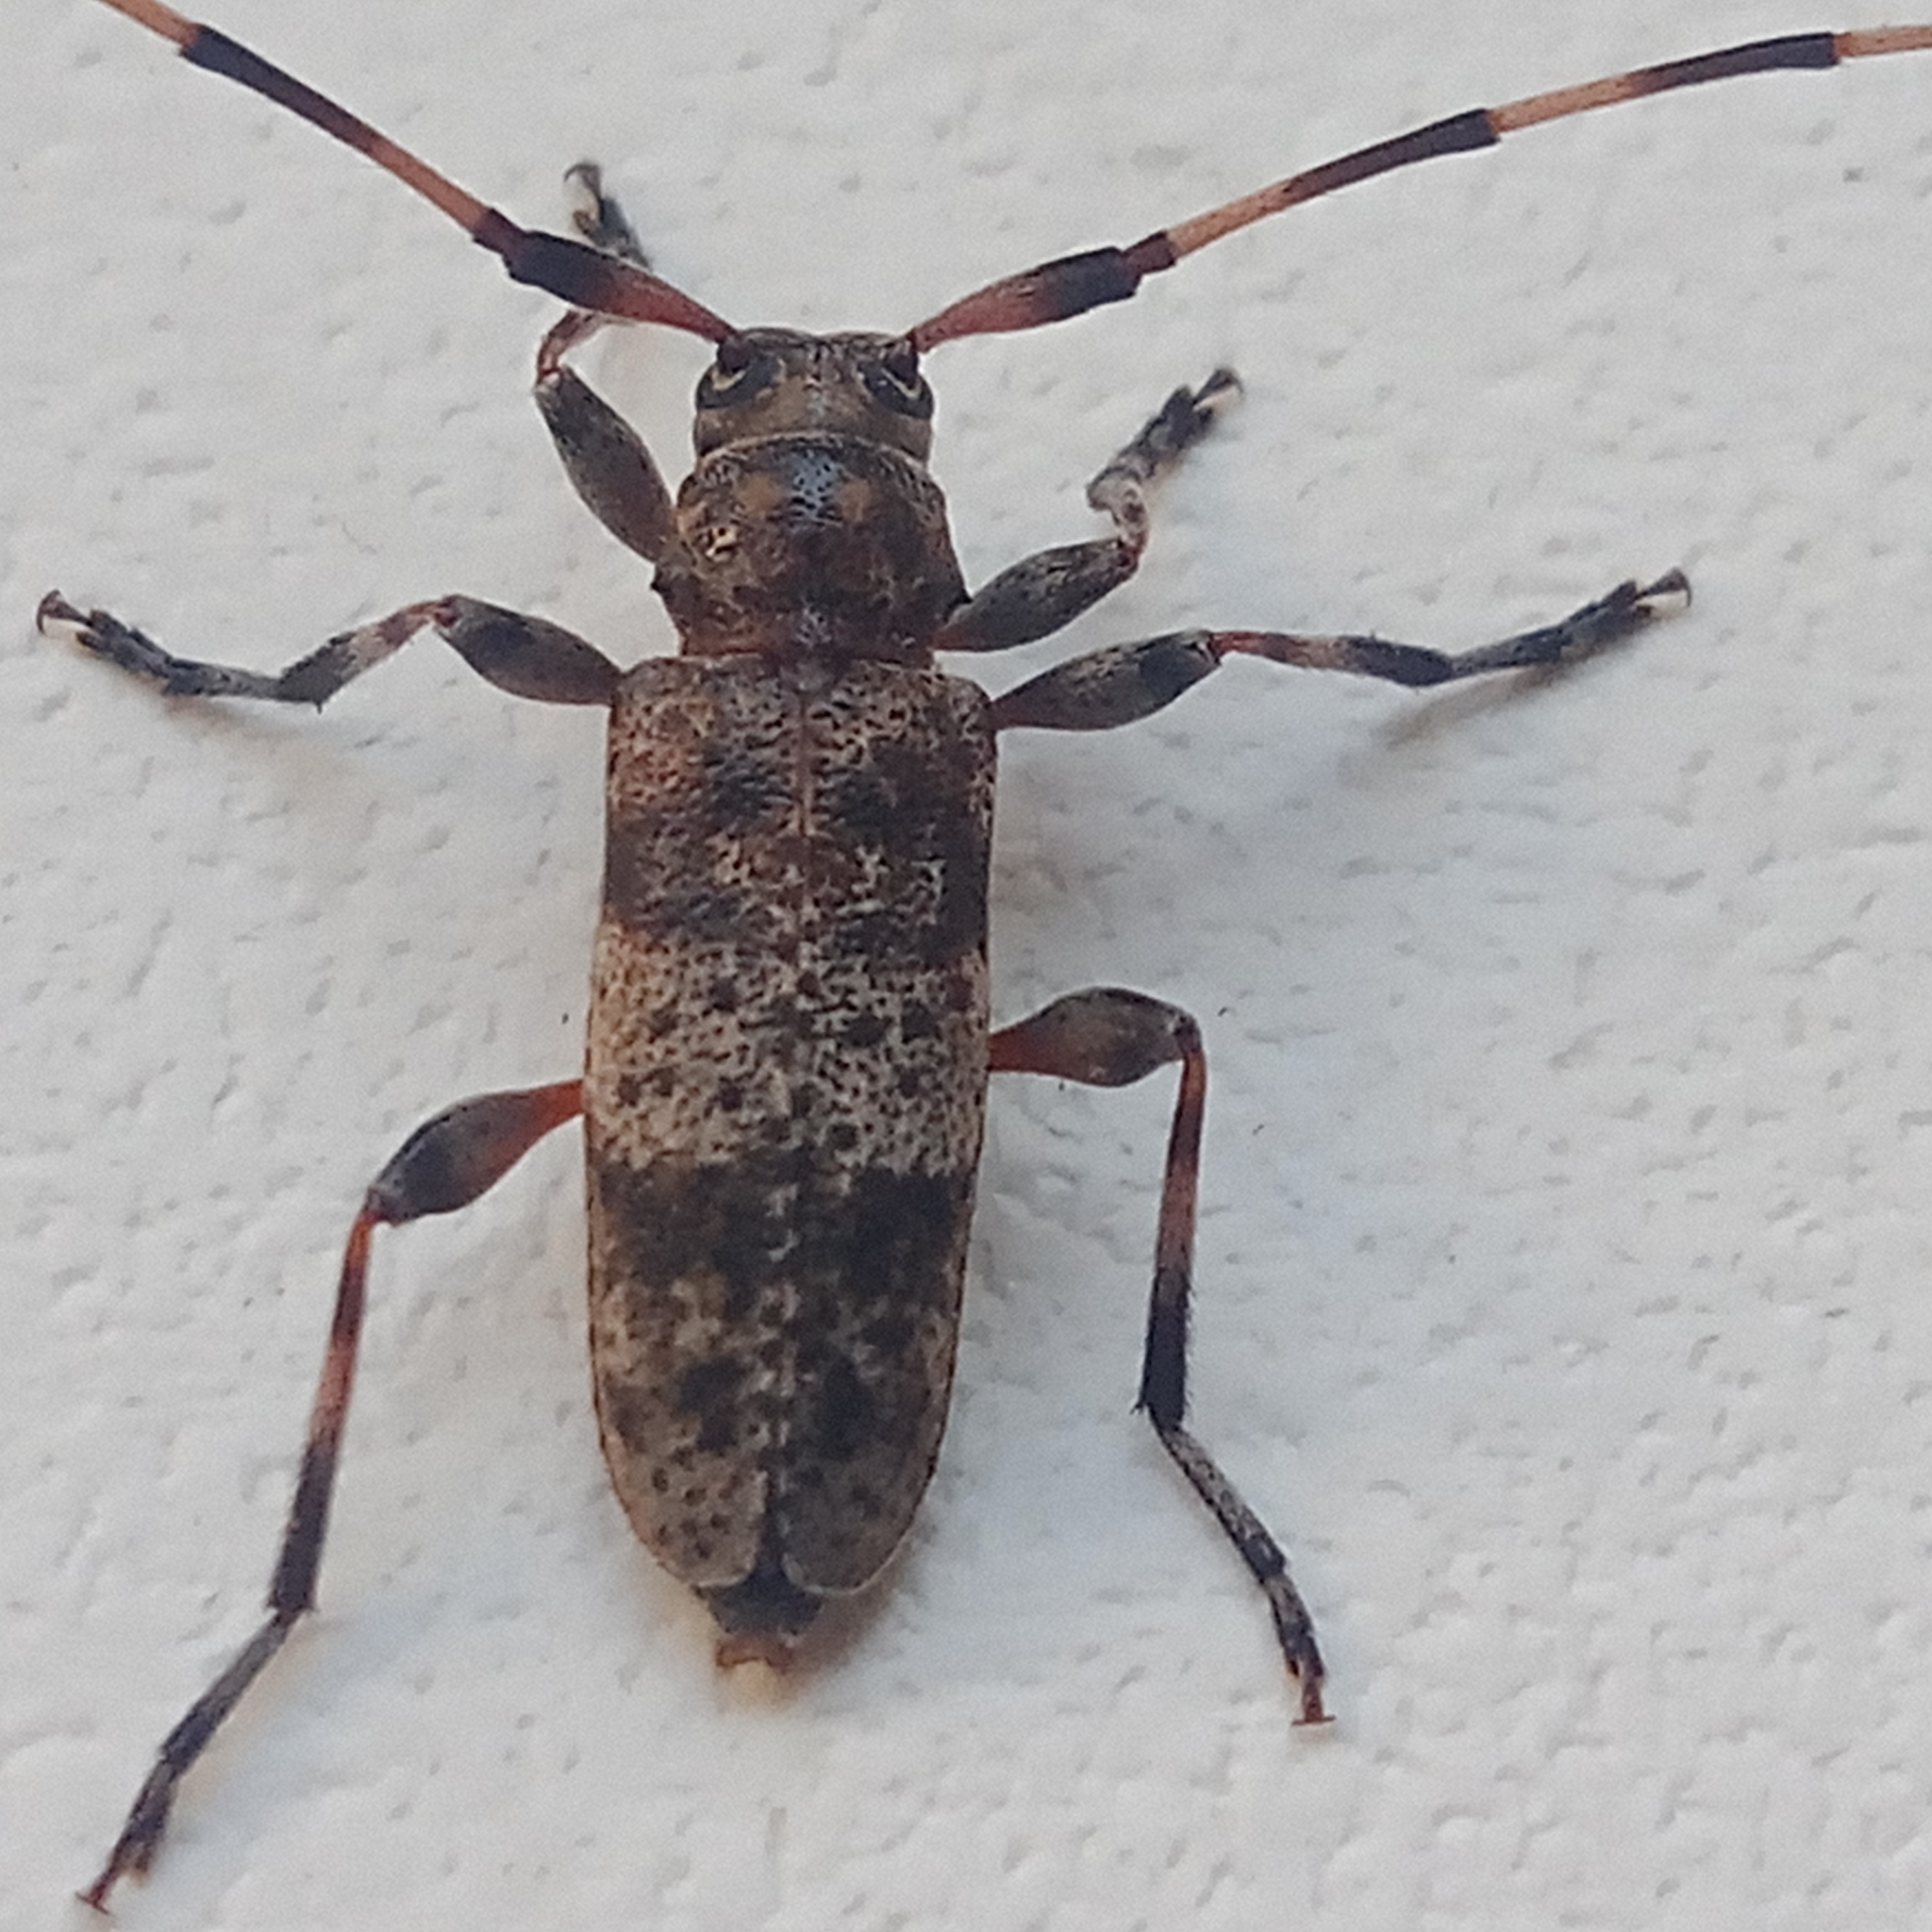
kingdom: Animalia
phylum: Arthropoda
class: Insecta
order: Coleoptera
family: Cerambycidae
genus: Acanthocinus
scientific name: Acanthocinus griseus
